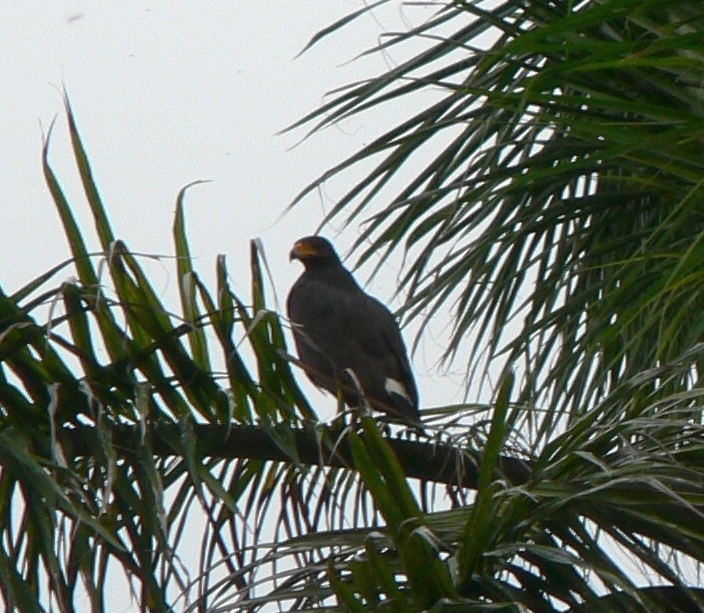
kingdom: Animalia
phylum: Chordata
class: Aves
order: Accipitriformes
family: Accipitridae
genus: Buteogallus
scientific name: Buteogallus anthracinus
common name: Common black hawk
